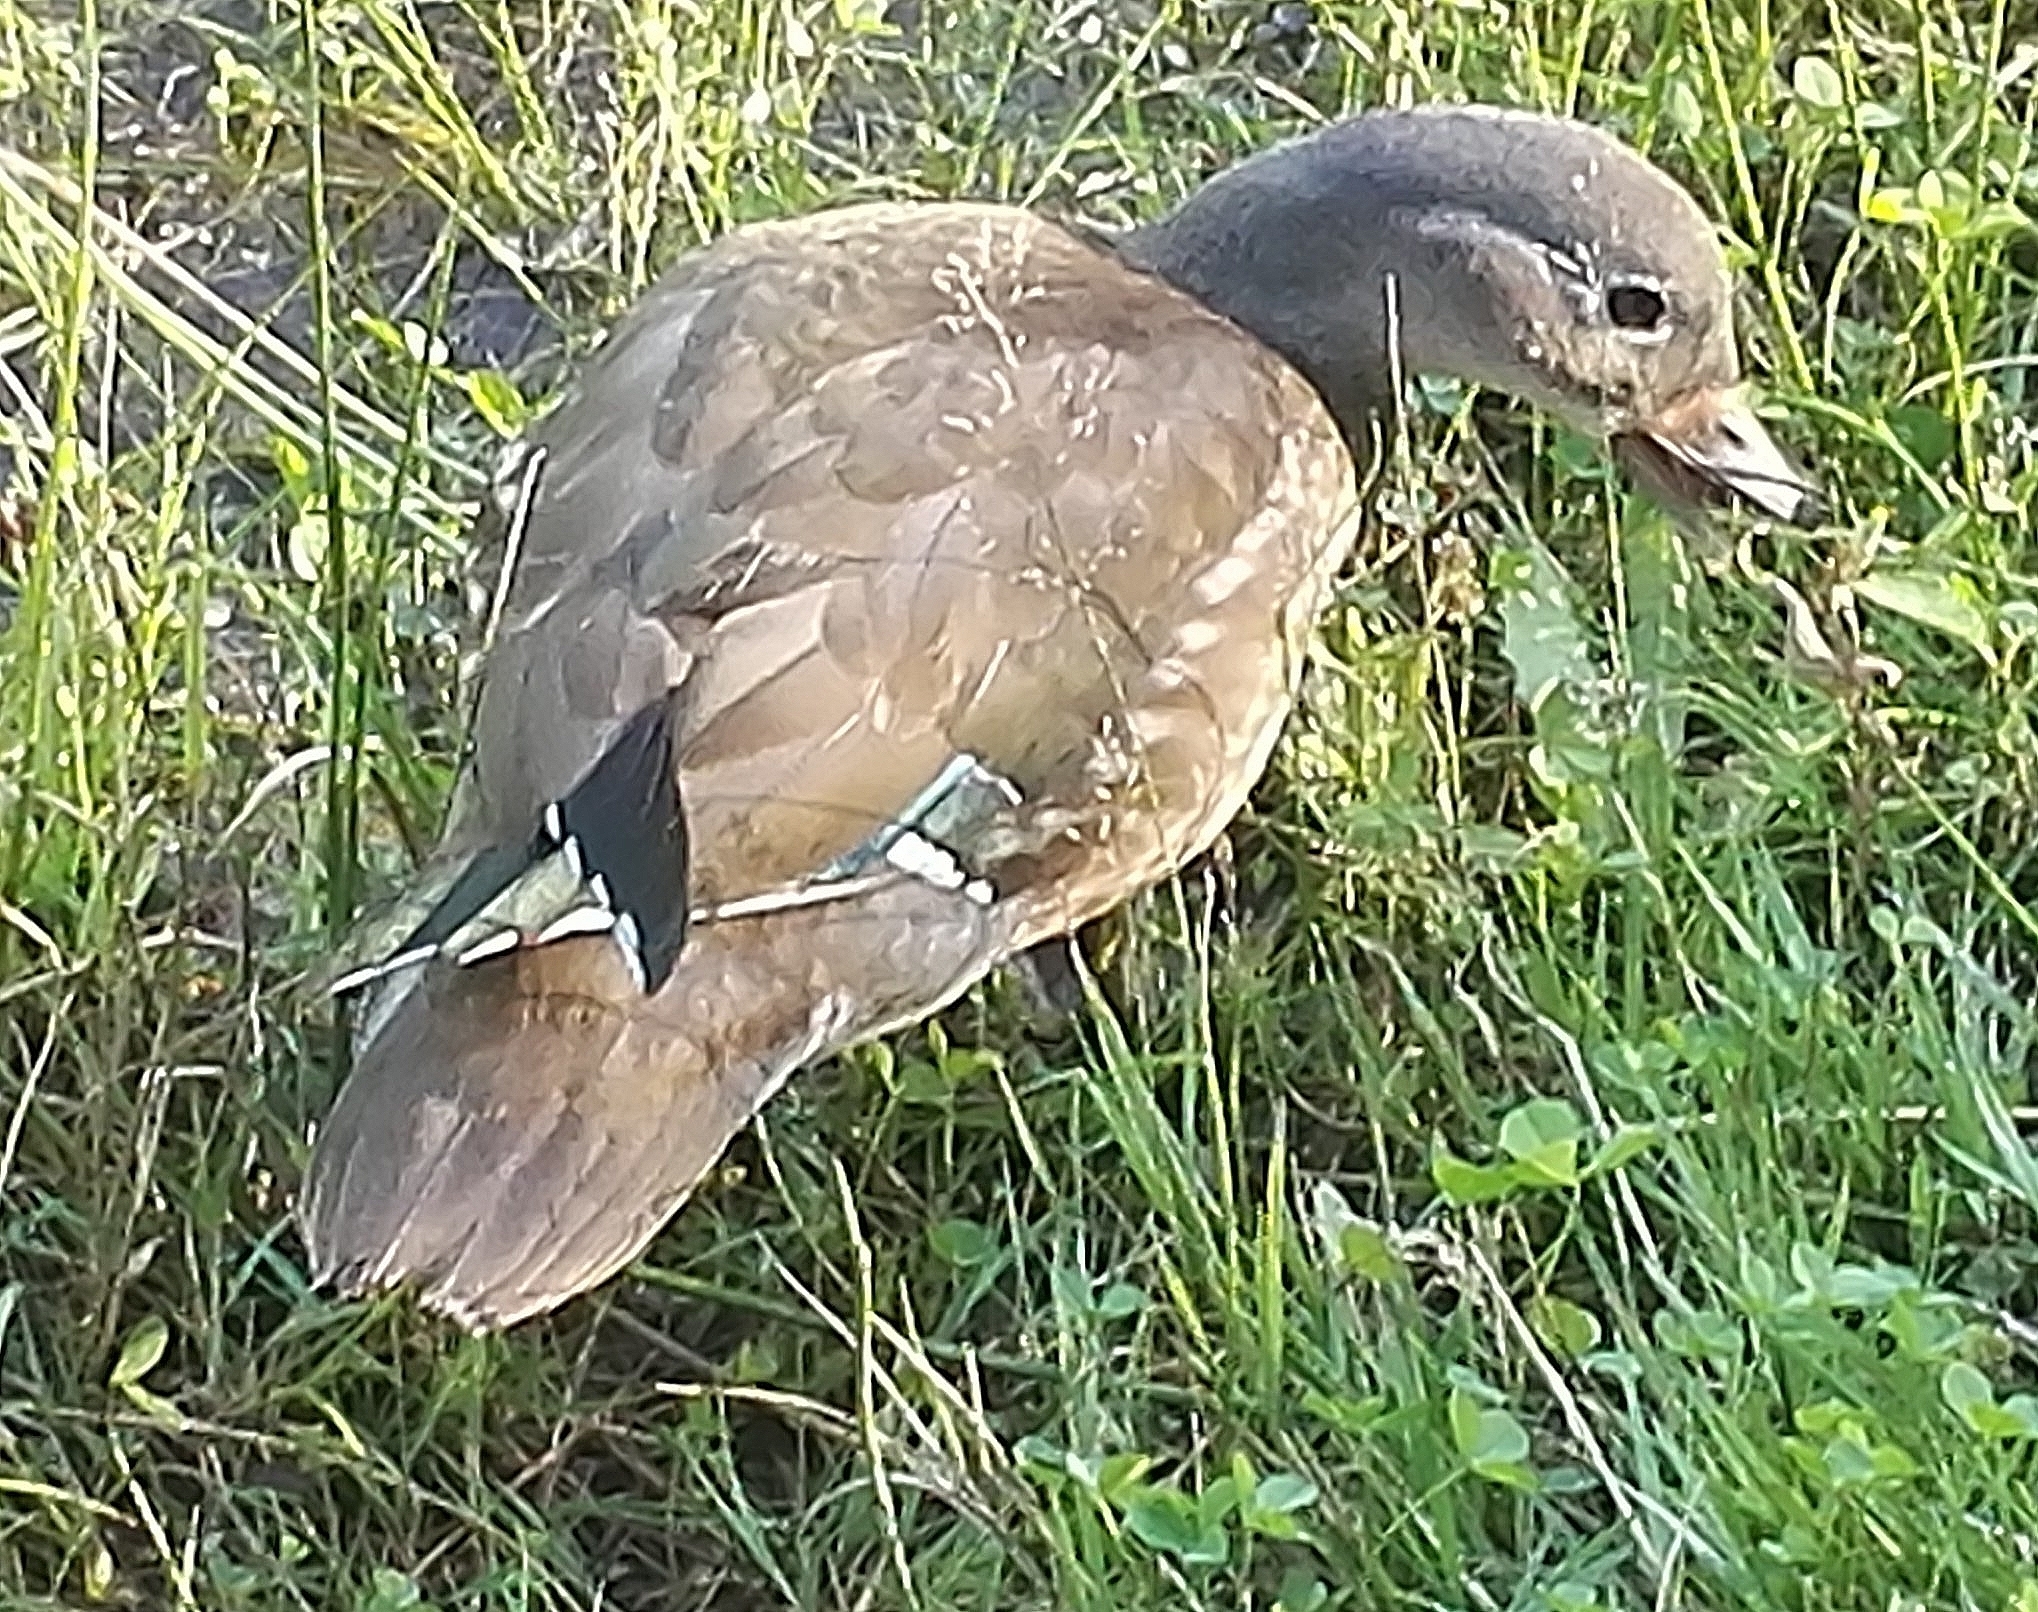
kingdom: Animalia
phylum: Chordata
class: Aves
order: Anseriformes
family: Anatidae
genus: Aix
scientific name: Aix galericulata
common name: Mandarin duck
